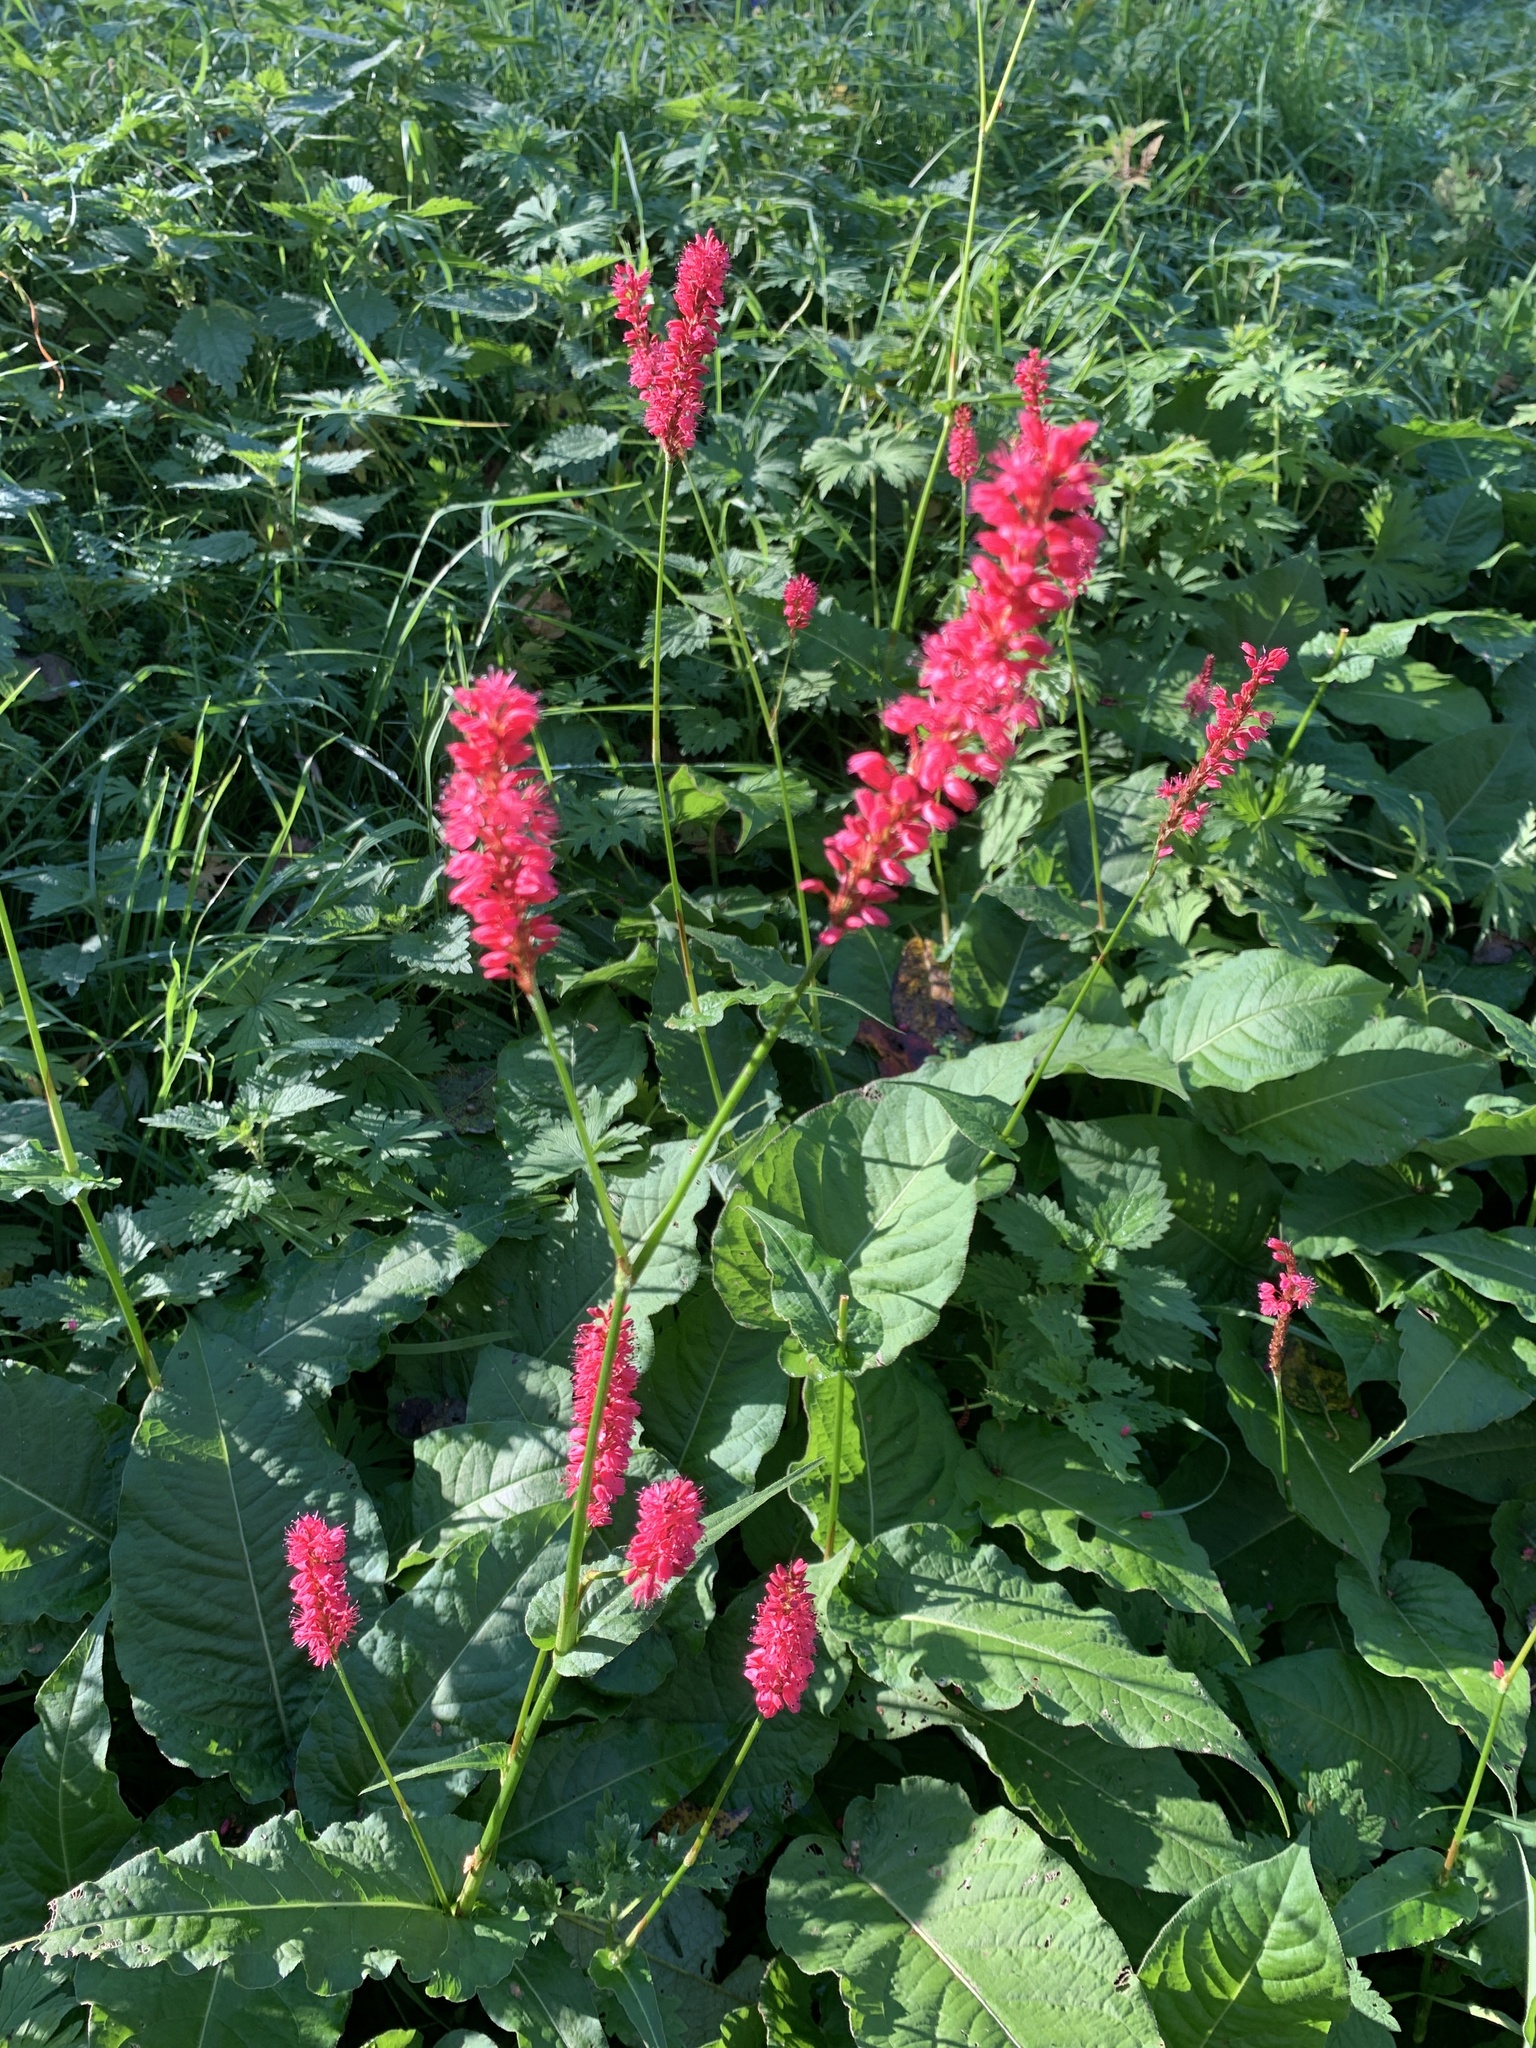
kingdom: Plantae
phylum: Tracheophyta
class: Magnoliopsida
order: Caryophyllales
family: Polygonaceae
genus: Bistorta
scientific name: Bistorta amplexicaulis
